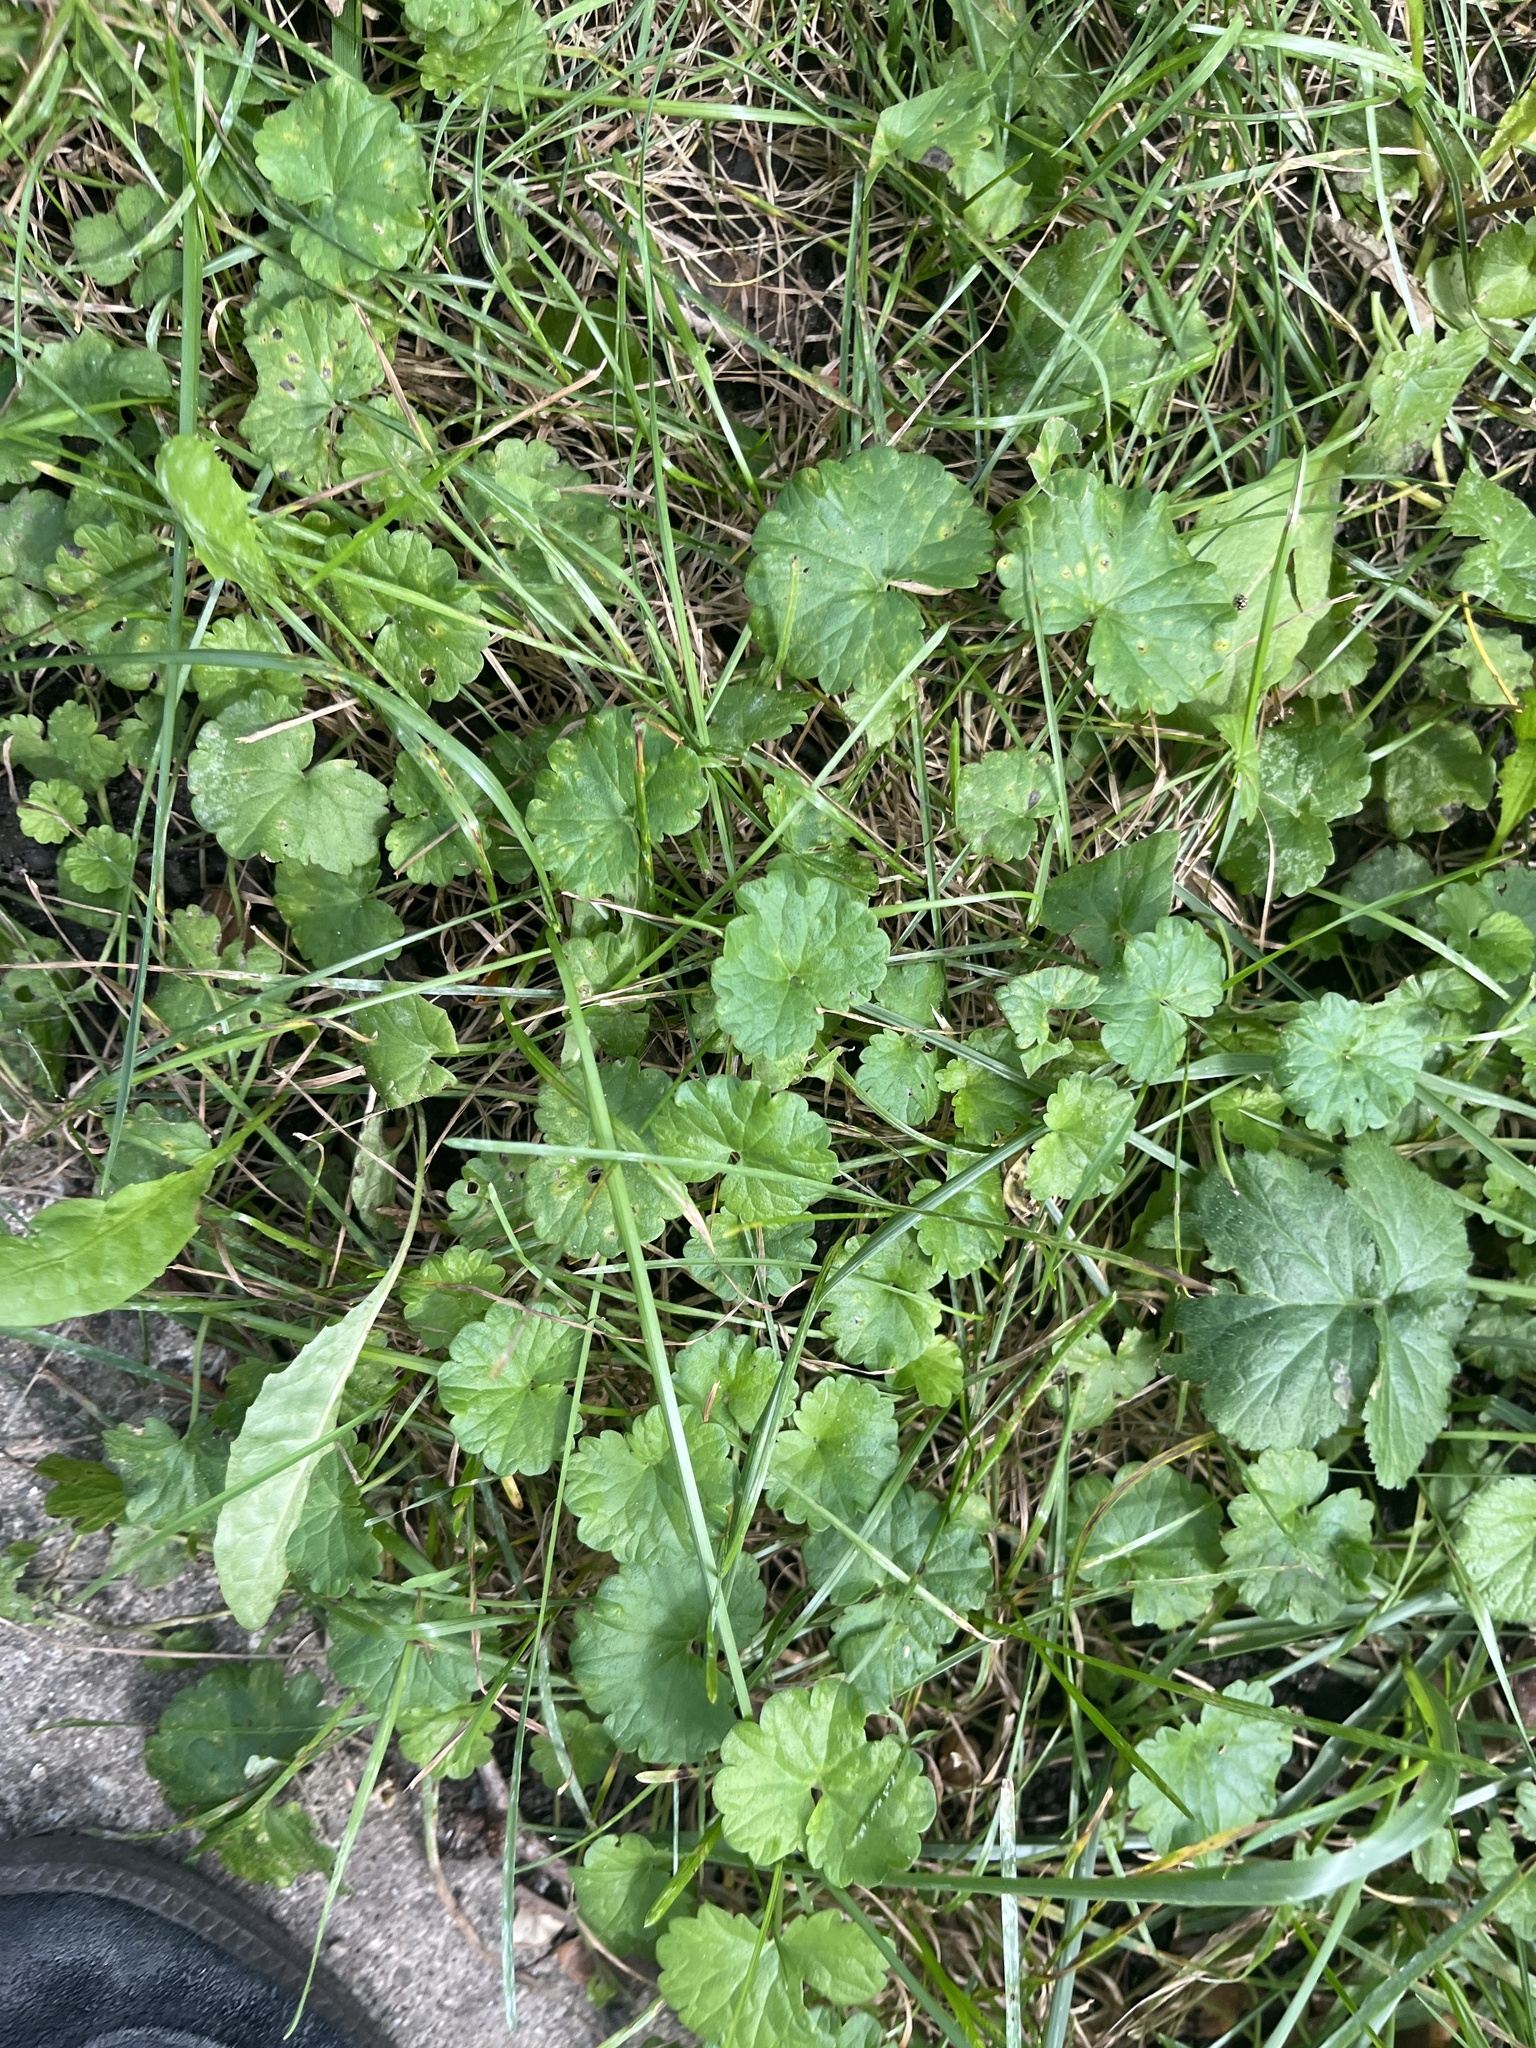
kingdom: Plantae
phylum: Tracheophyta
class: Magnoliopsida
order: Lamiales
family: Lamiaceae
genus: Glechoma
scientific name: Glechoma hederacea
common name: Ground ivy
